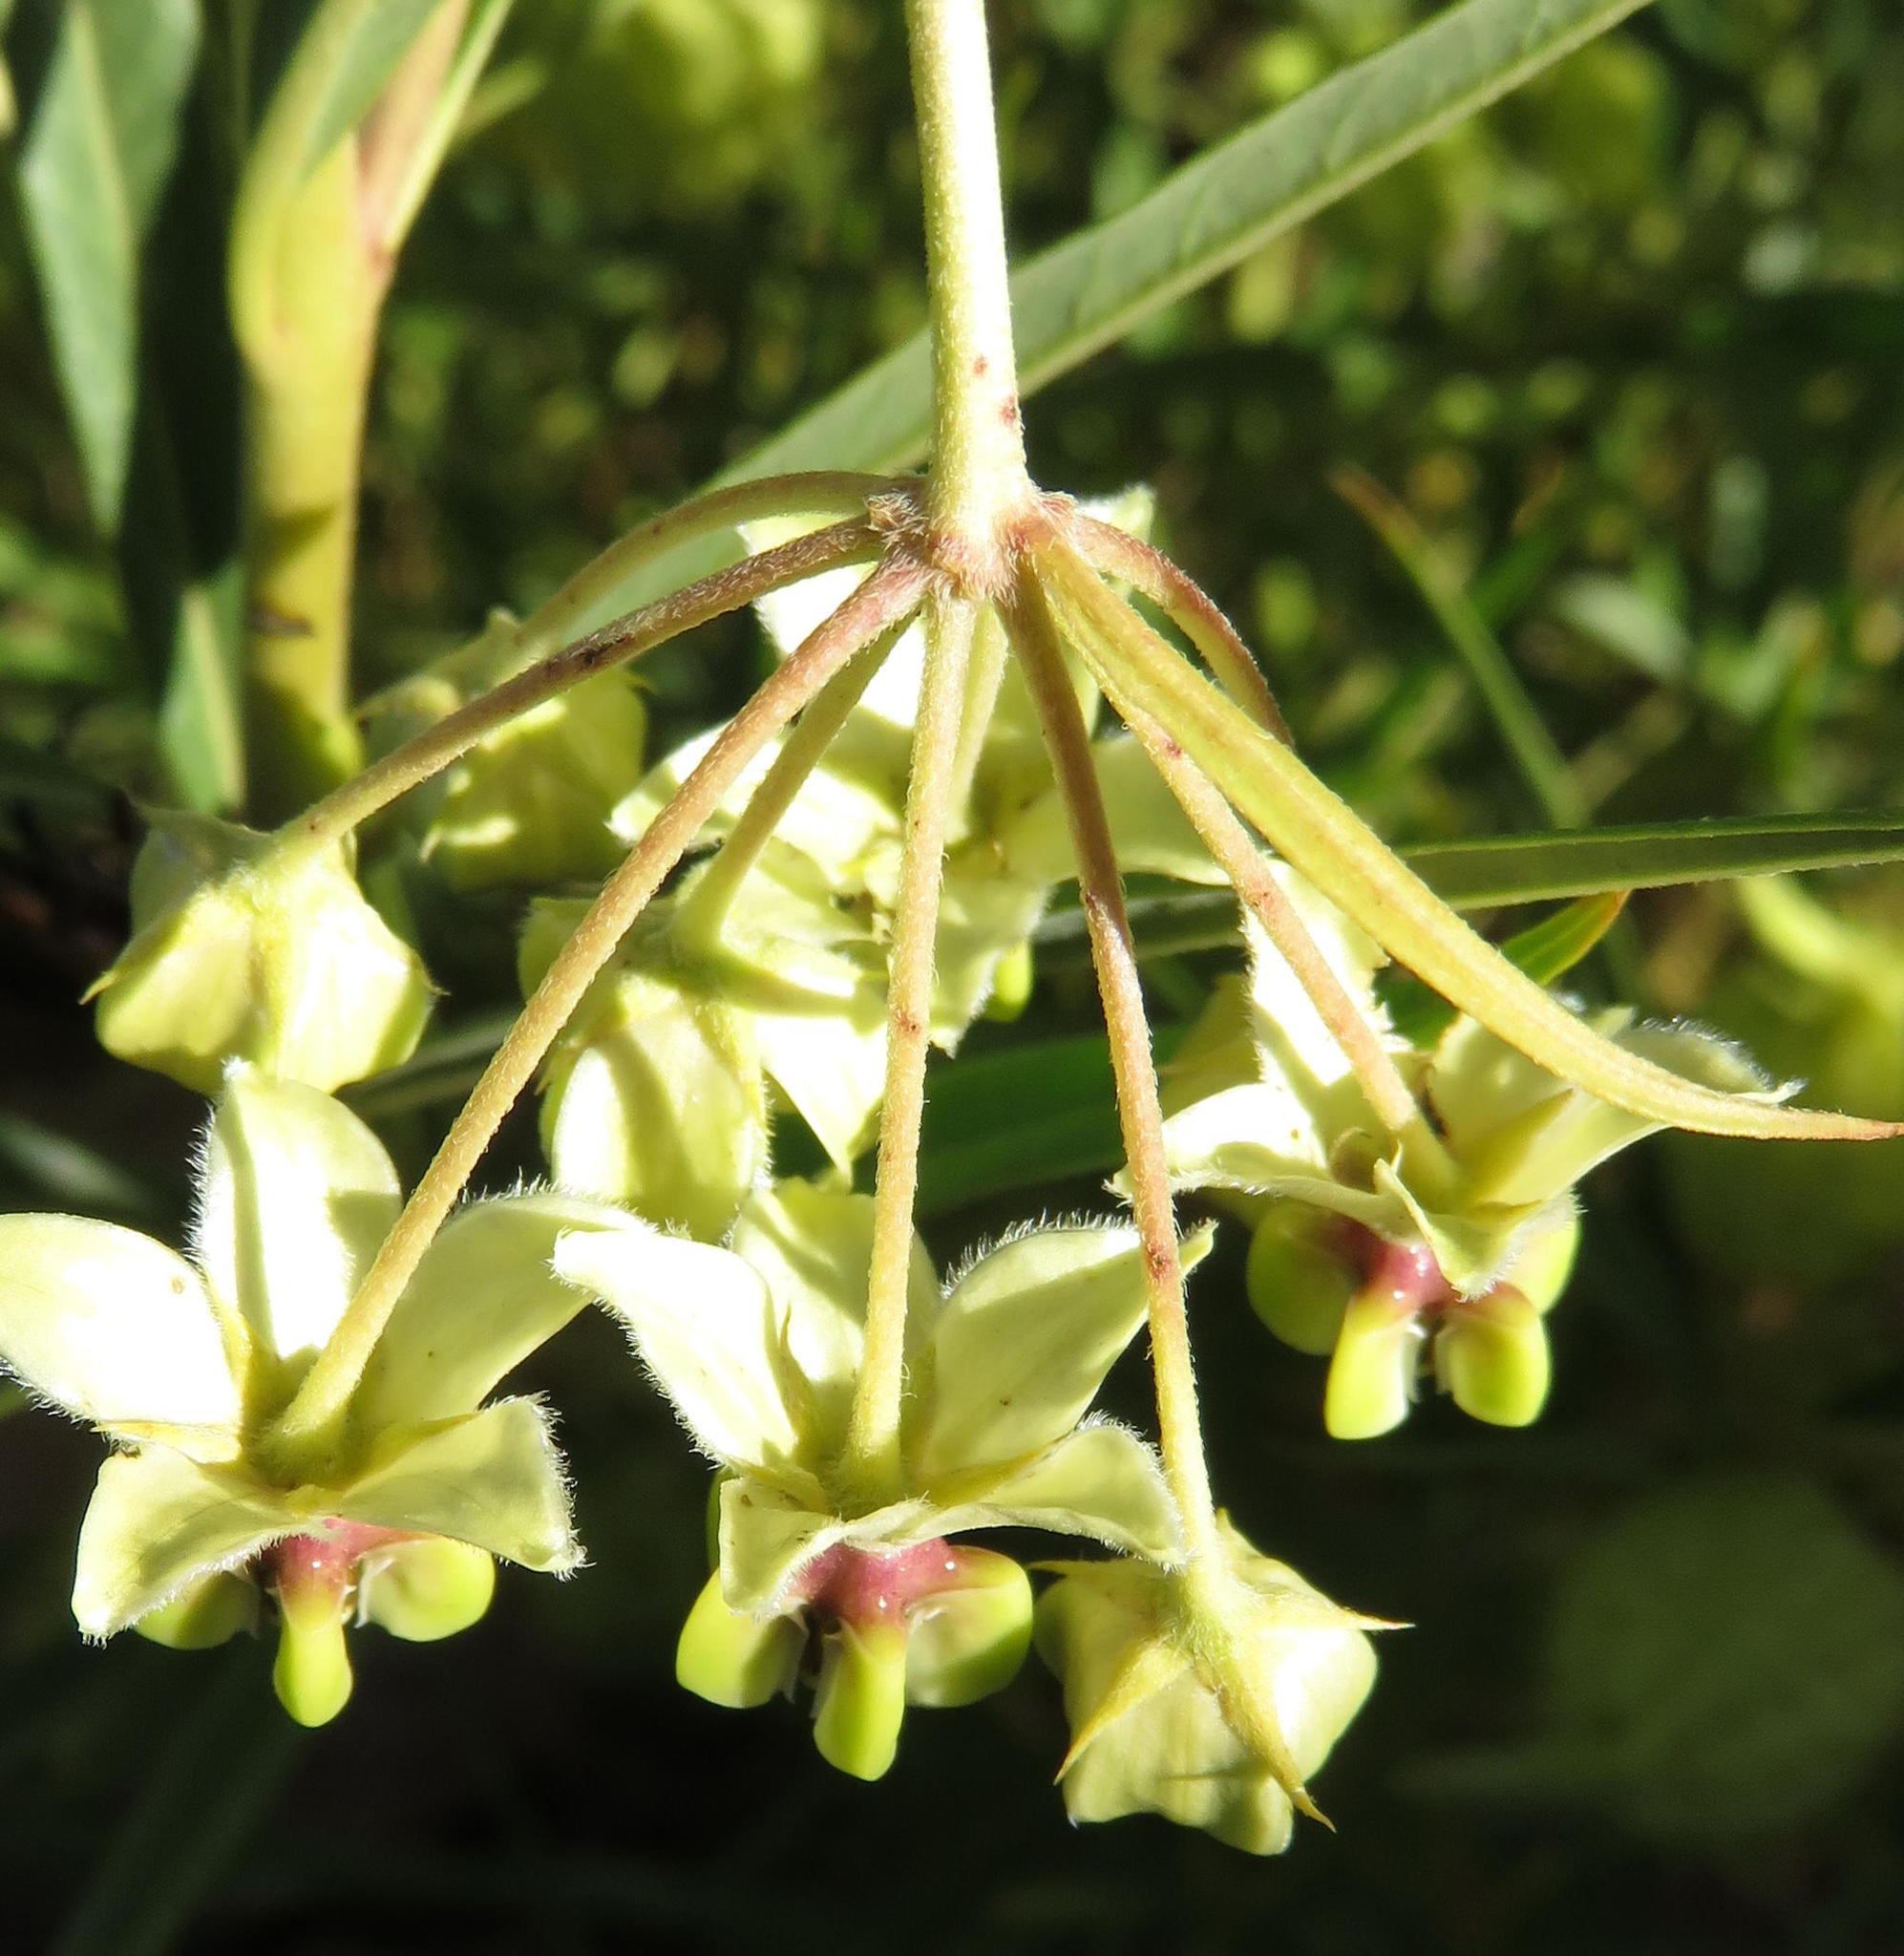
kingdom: Plantae
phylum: Tracheophyta
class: Magnoliopsida
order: Gentianales
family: Apocynaceae
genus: Gomphocarpus
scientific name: Gomphocarpus fruticosus
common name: Milkweed
